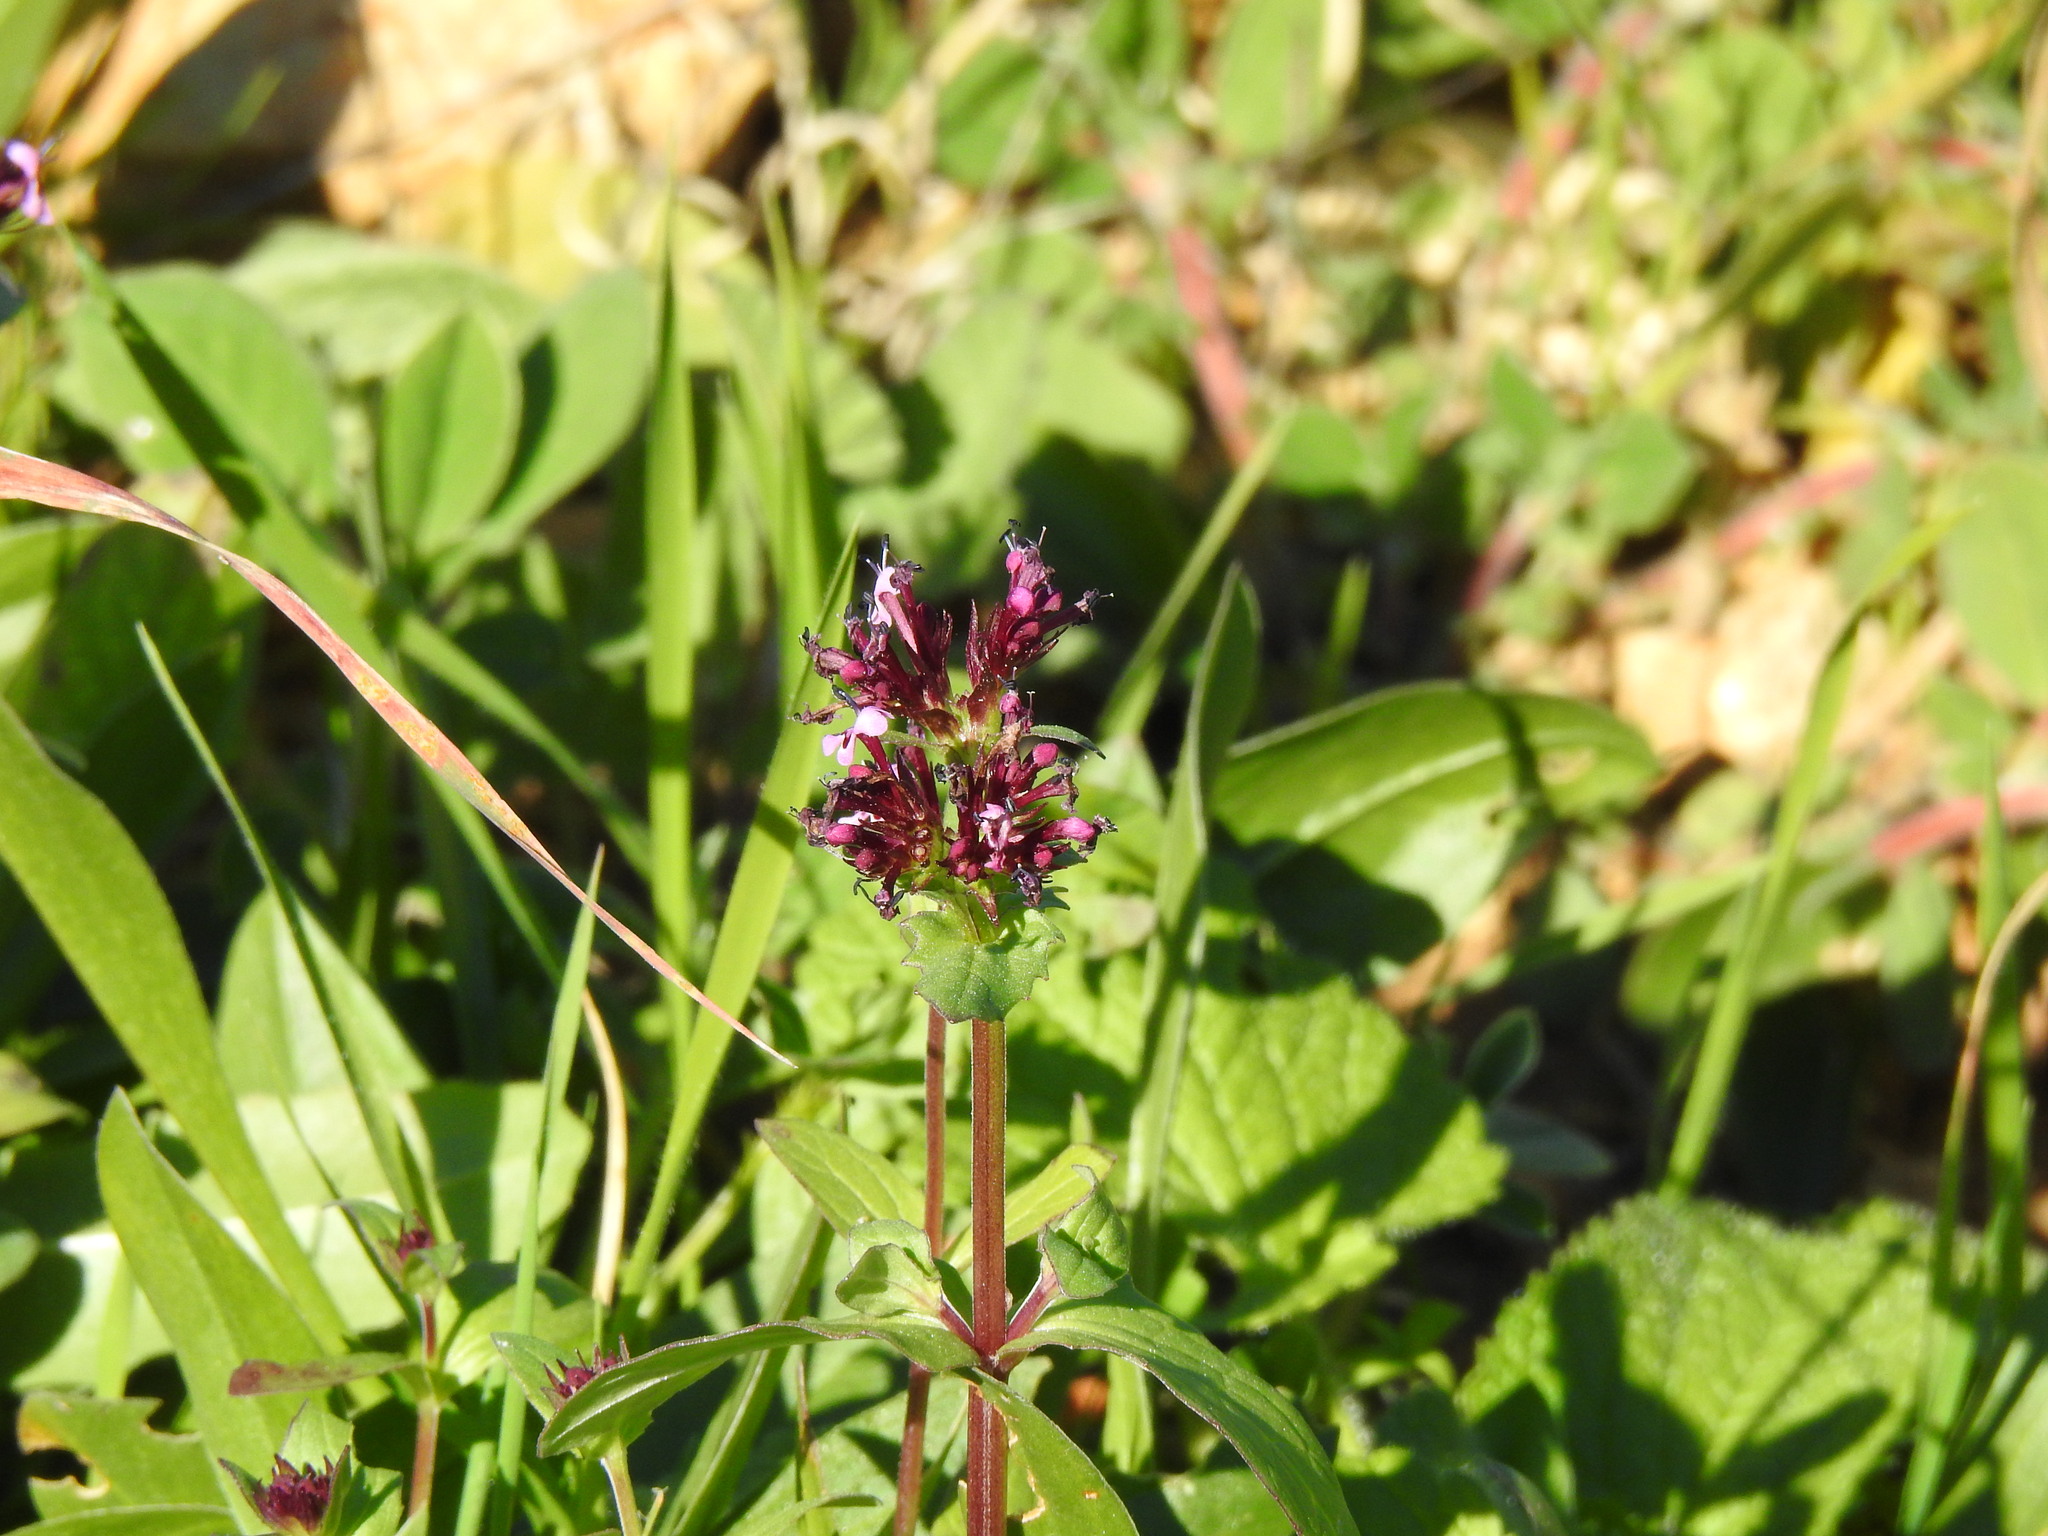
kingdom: Plantae
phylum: Tracheophyta
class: Magnoliopsida
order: Dipsacales
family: Caprifoliaceae
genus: Fedia
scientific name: Fedia cornucopiae
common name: Horn-of-plenty
